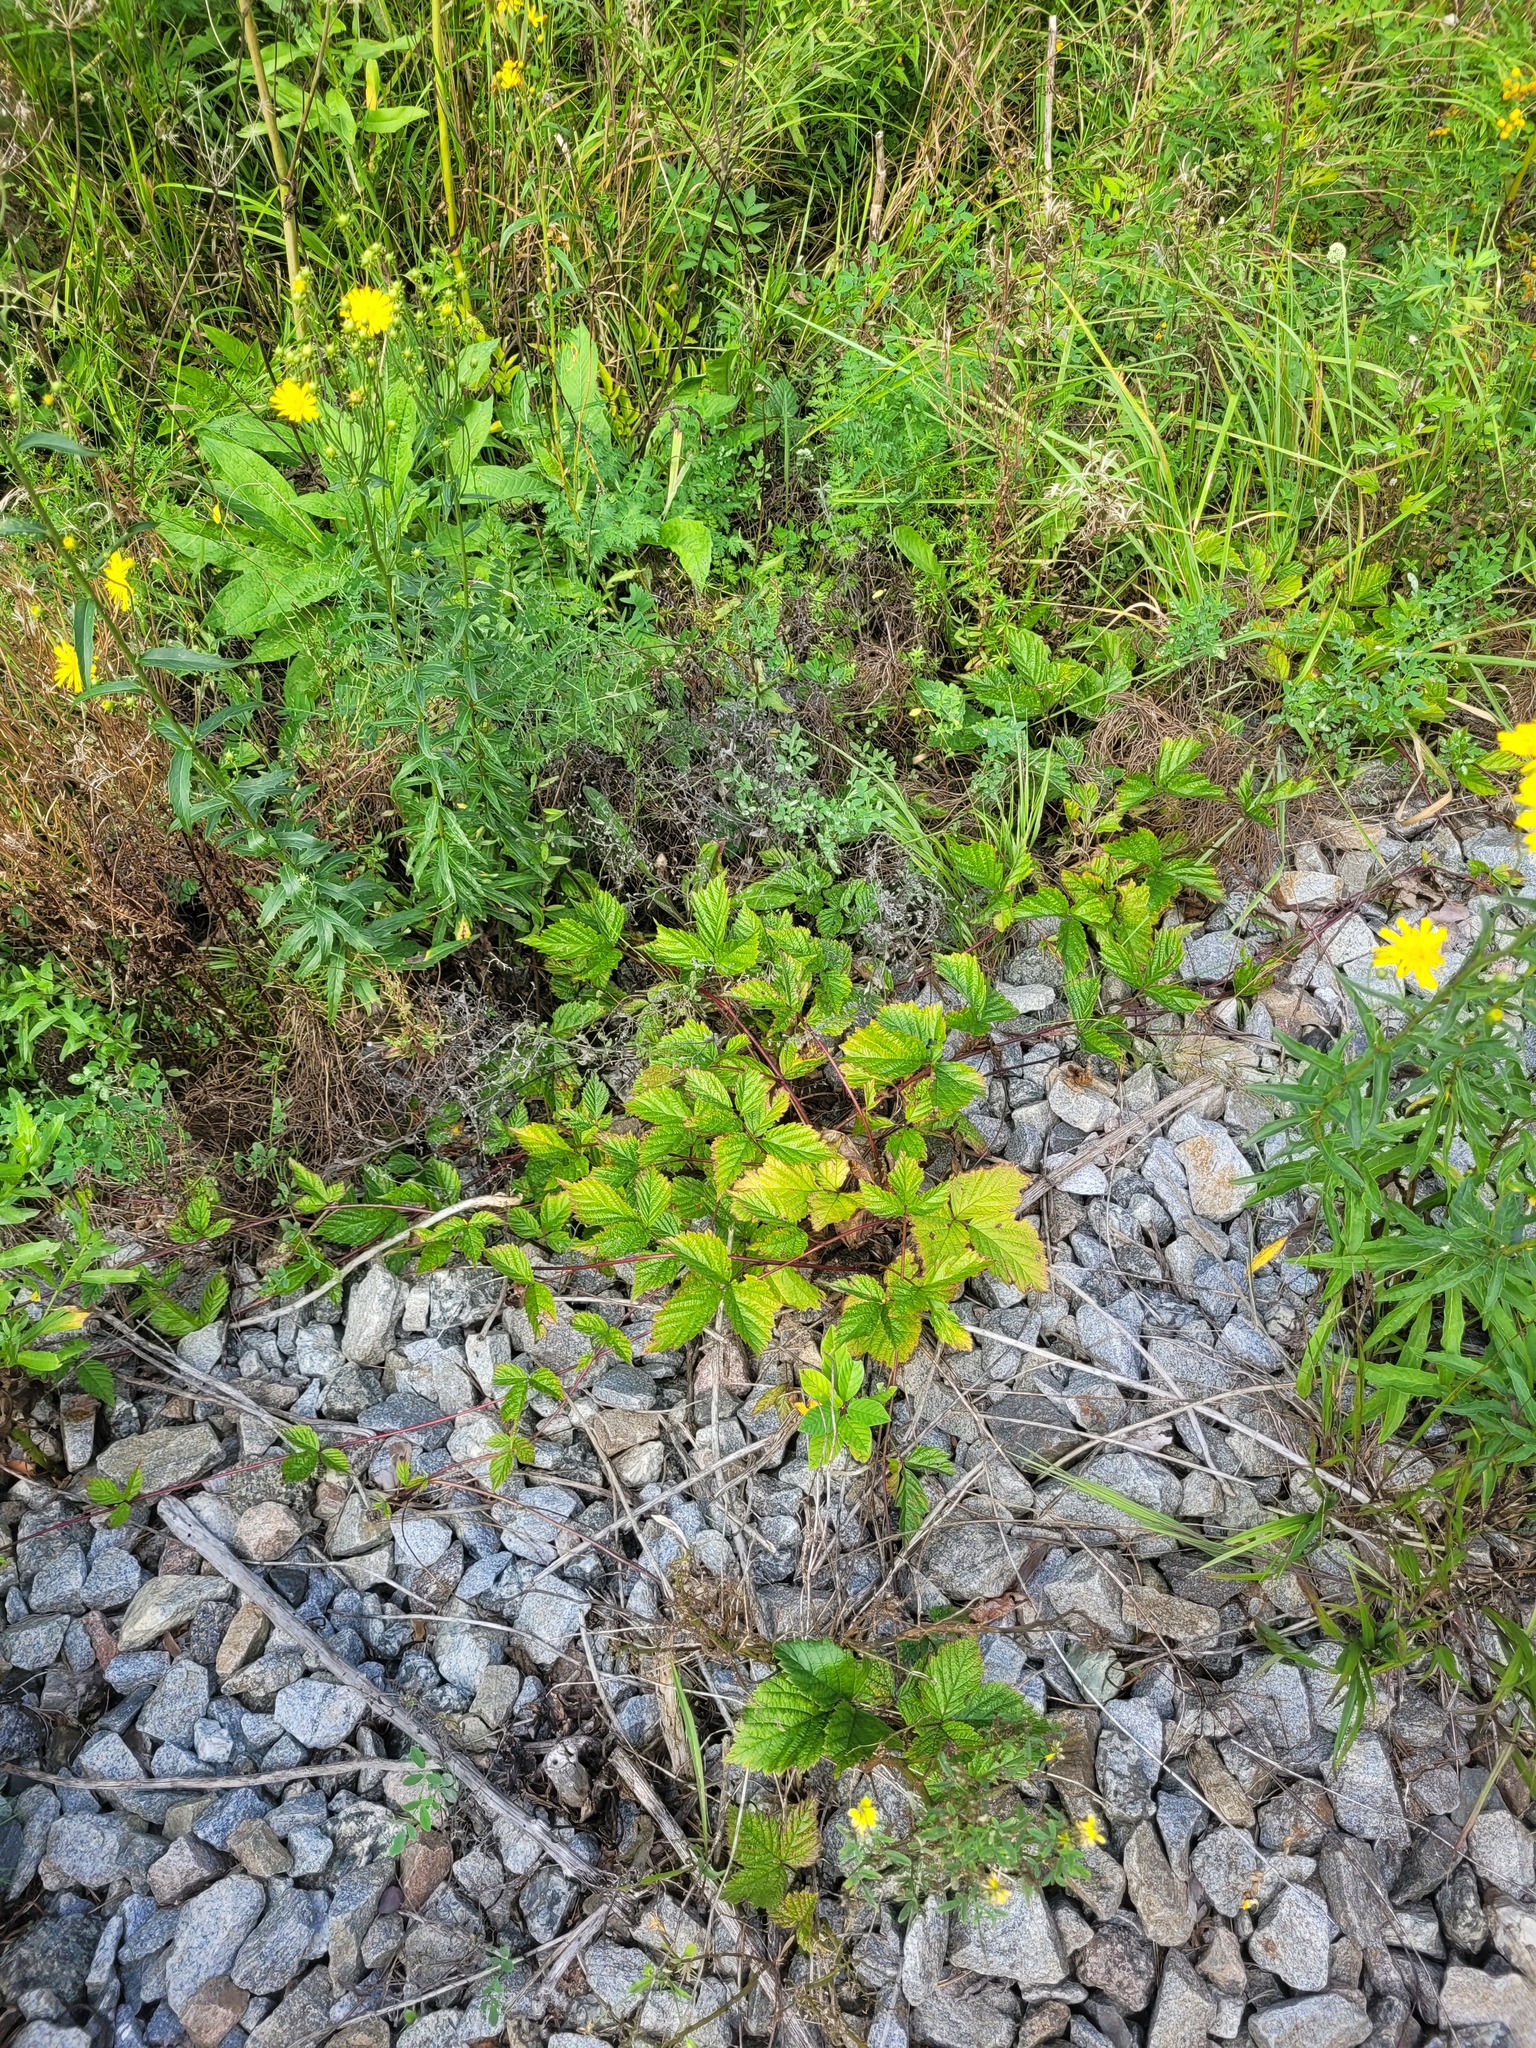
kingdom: Plantae
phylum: Tracheophyta
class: Magnoliopsida
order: Rosales
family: Rosaceae
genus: Rubus
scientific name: Rubus saxatilis
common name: Stone bramble
